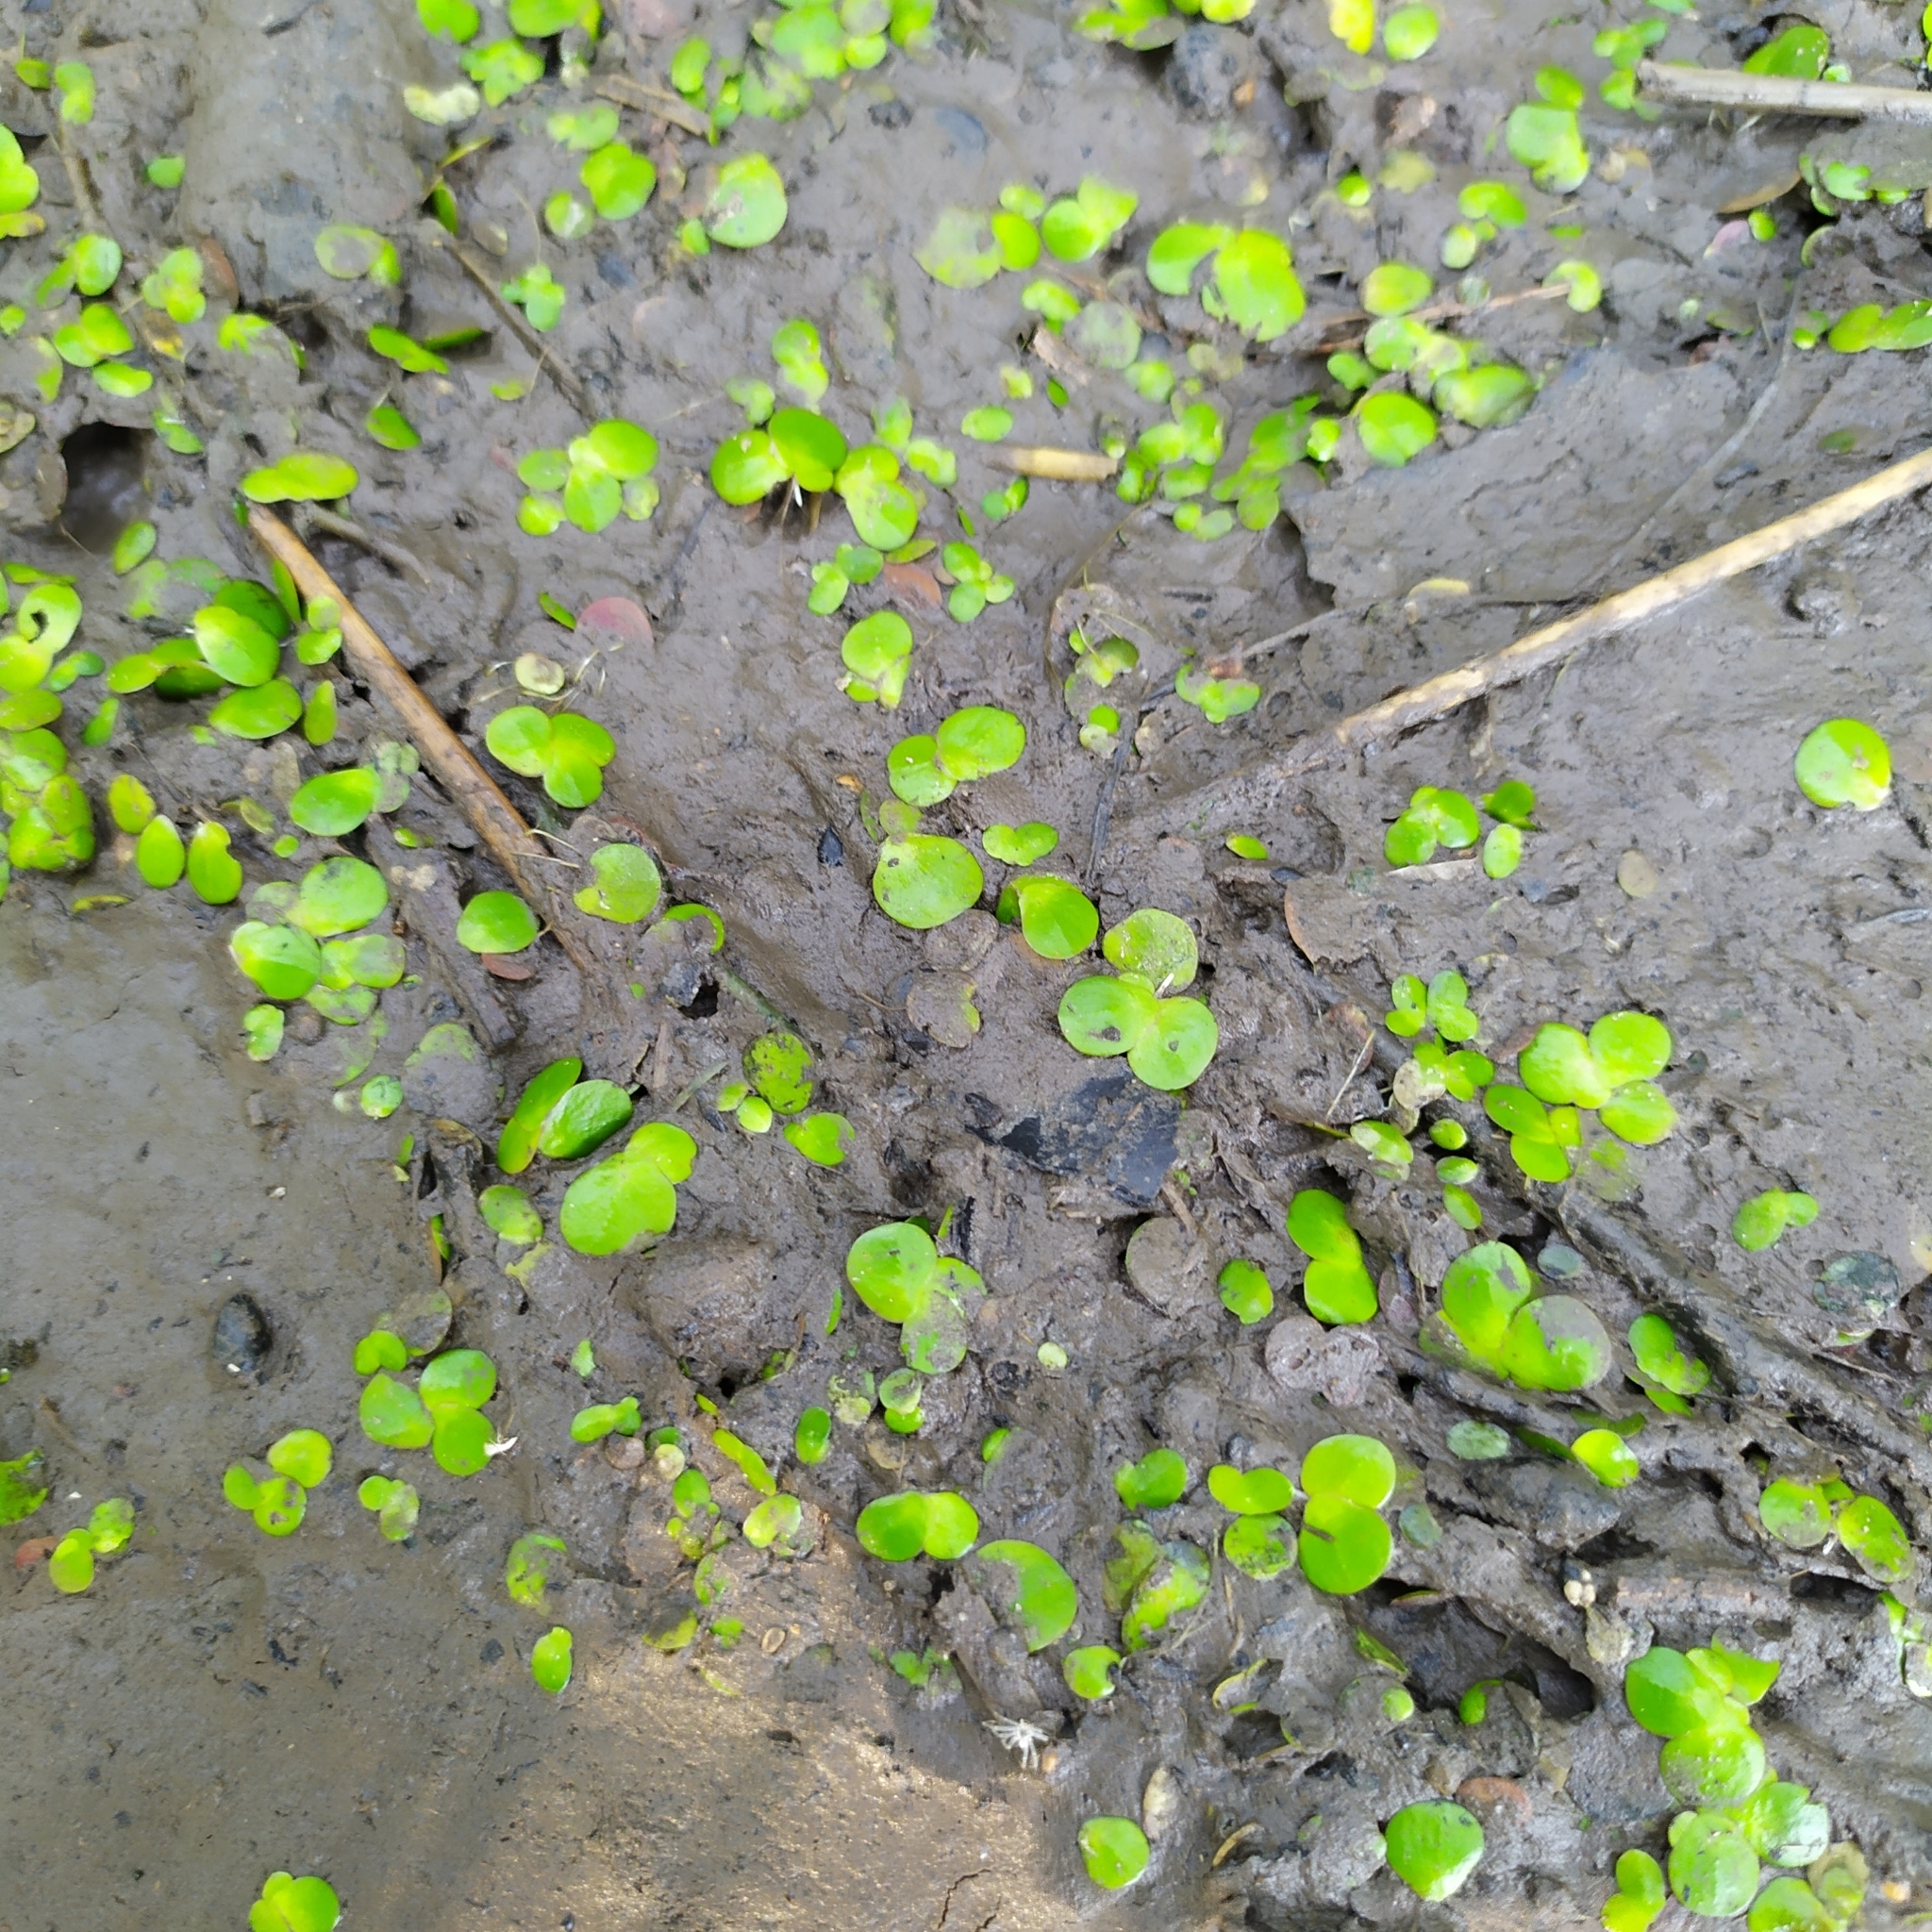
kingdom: Plantae
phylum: Tracheophyta
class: Liliopsida
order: Alismatales
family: Araceae
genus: Spirodela
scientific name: Spirodela polyrhiza
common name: Great duckweed
